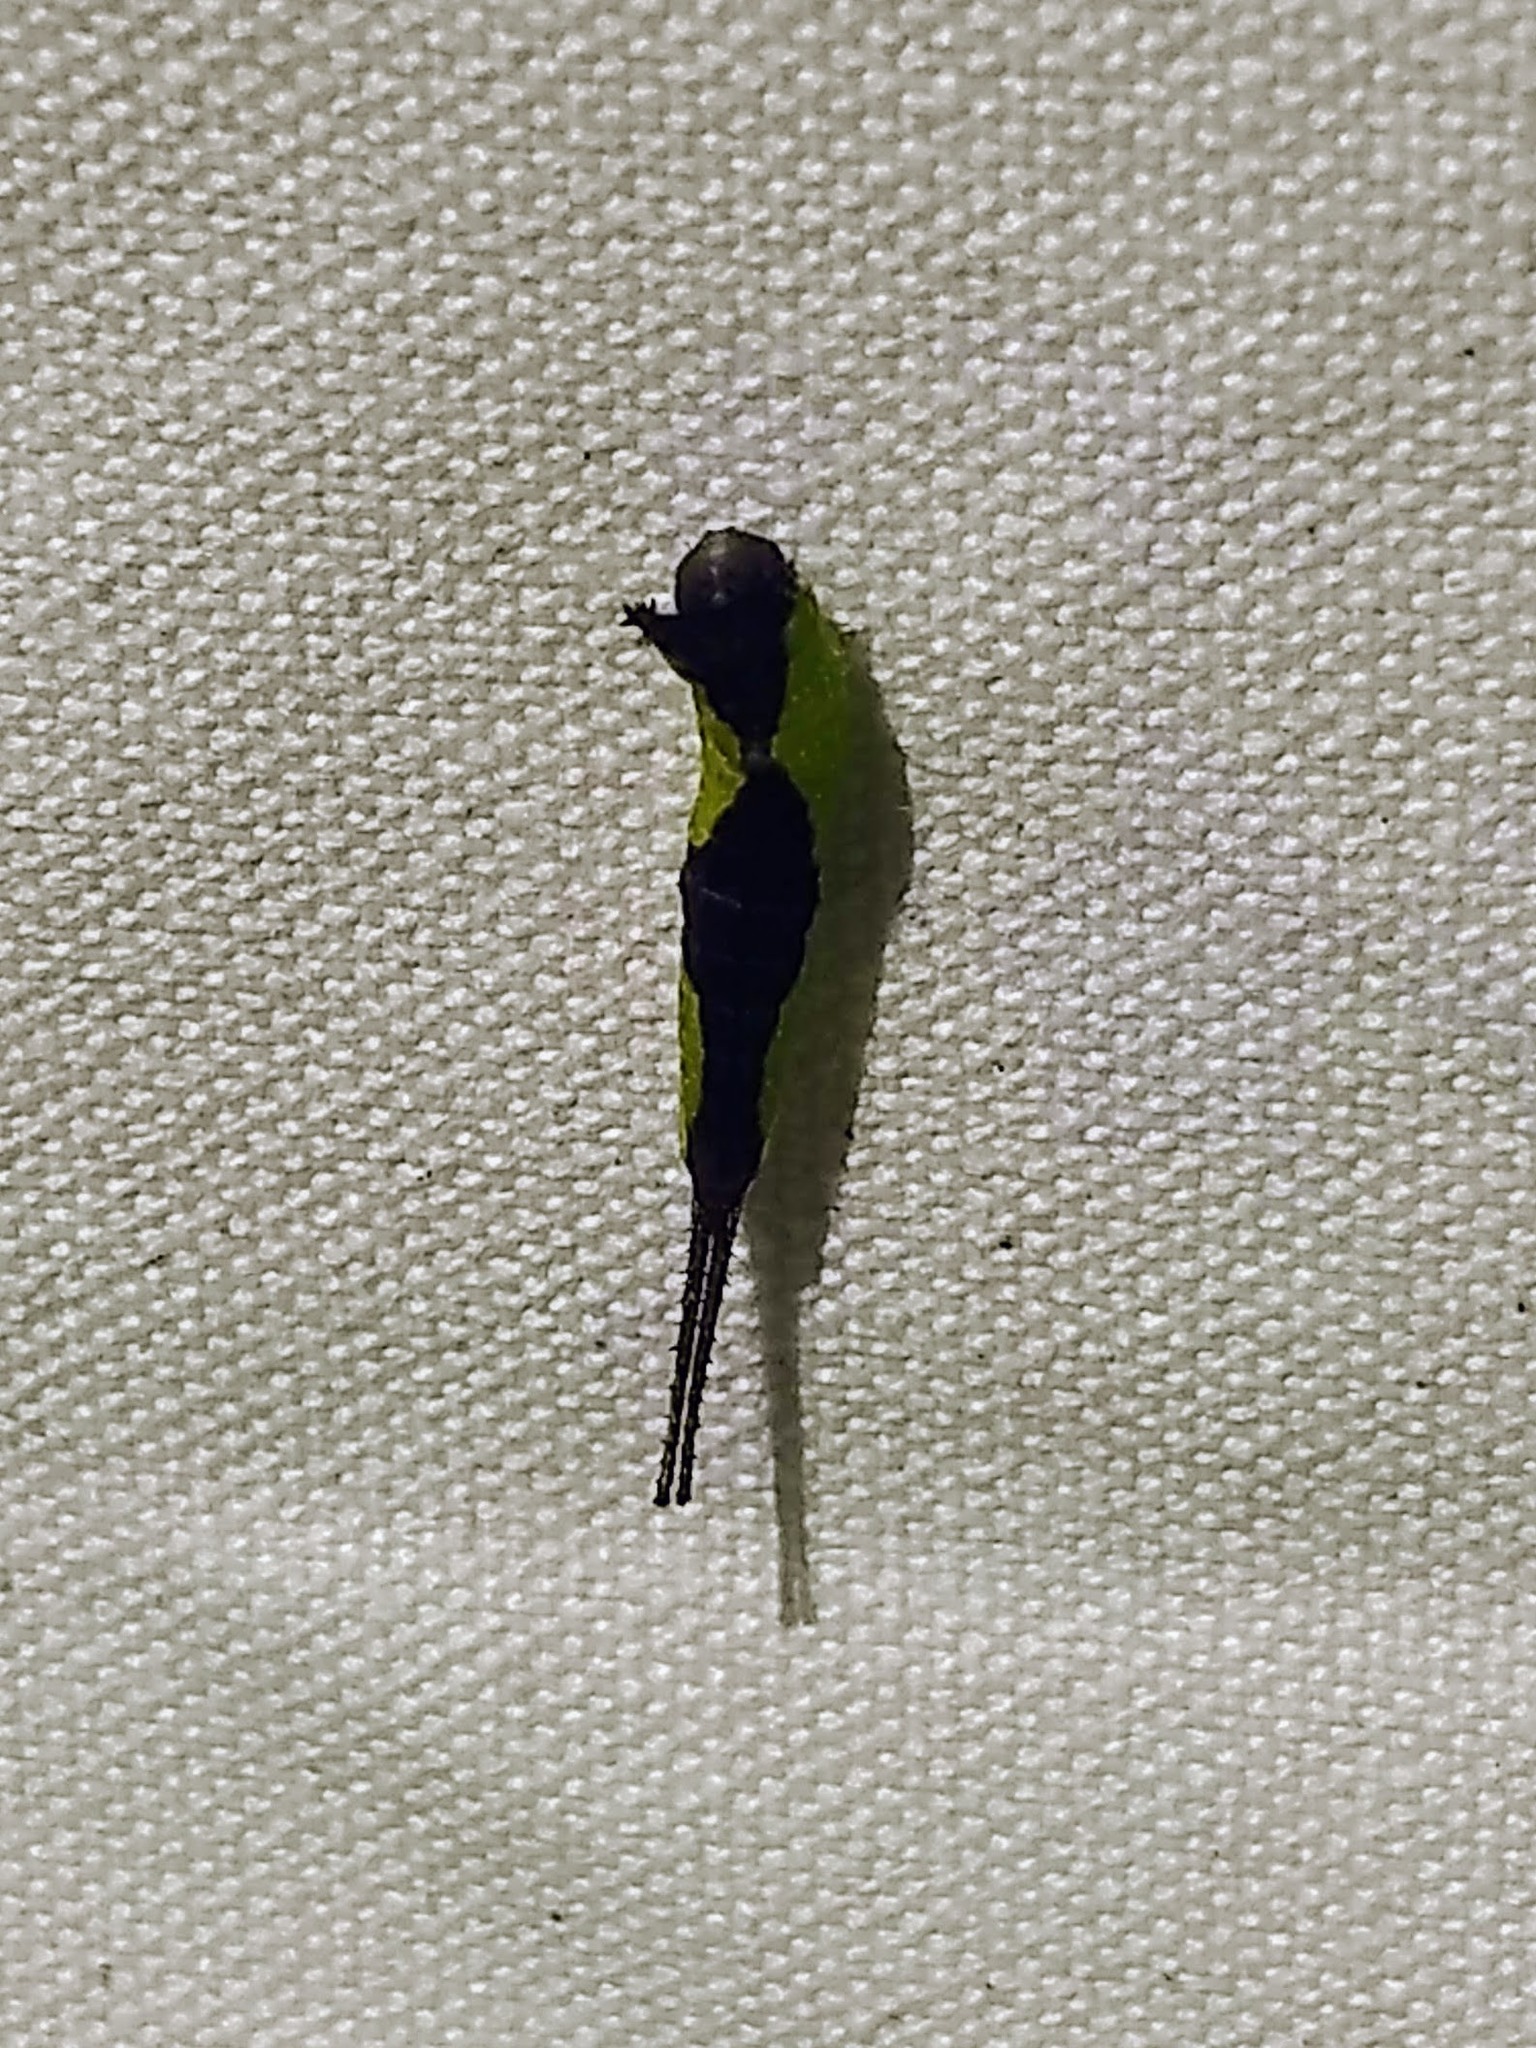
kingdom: Animalia
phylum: Arthropoda
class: Insecta
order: Lepidoptera
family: Notodontidae
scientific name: Notodontidae
